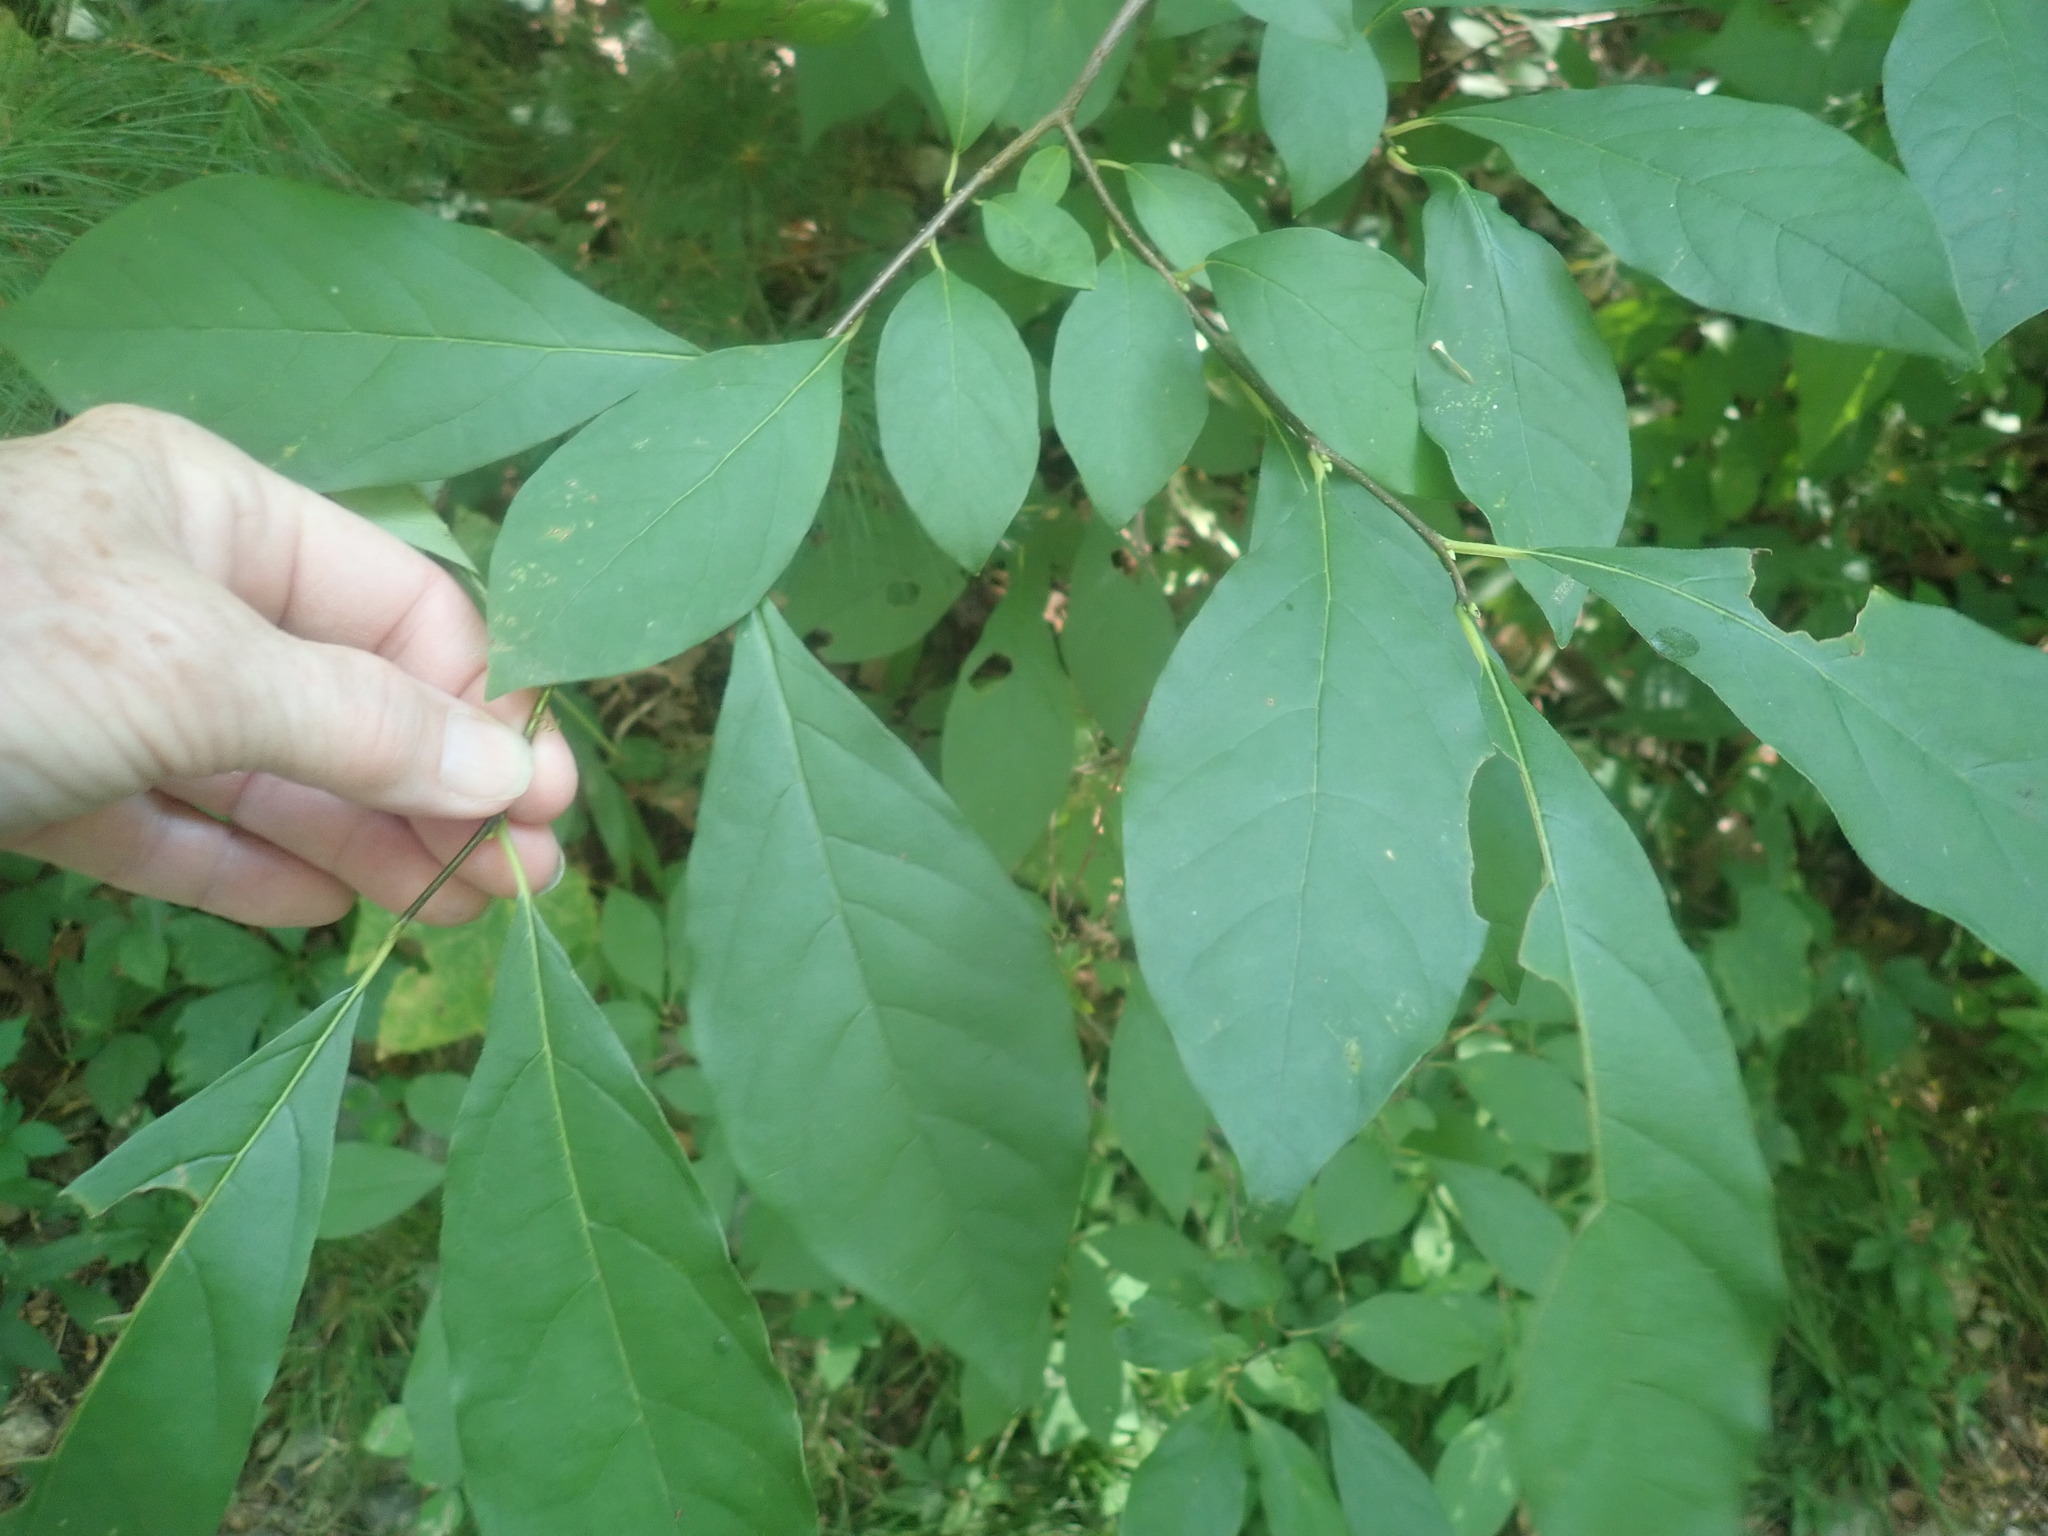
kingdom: Plantae
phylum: Tracheophyta
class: Magnoliopsida
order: Laurales
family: Lauraceae
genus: Lindera
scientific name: Lindera benzoin
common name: Spicebush
